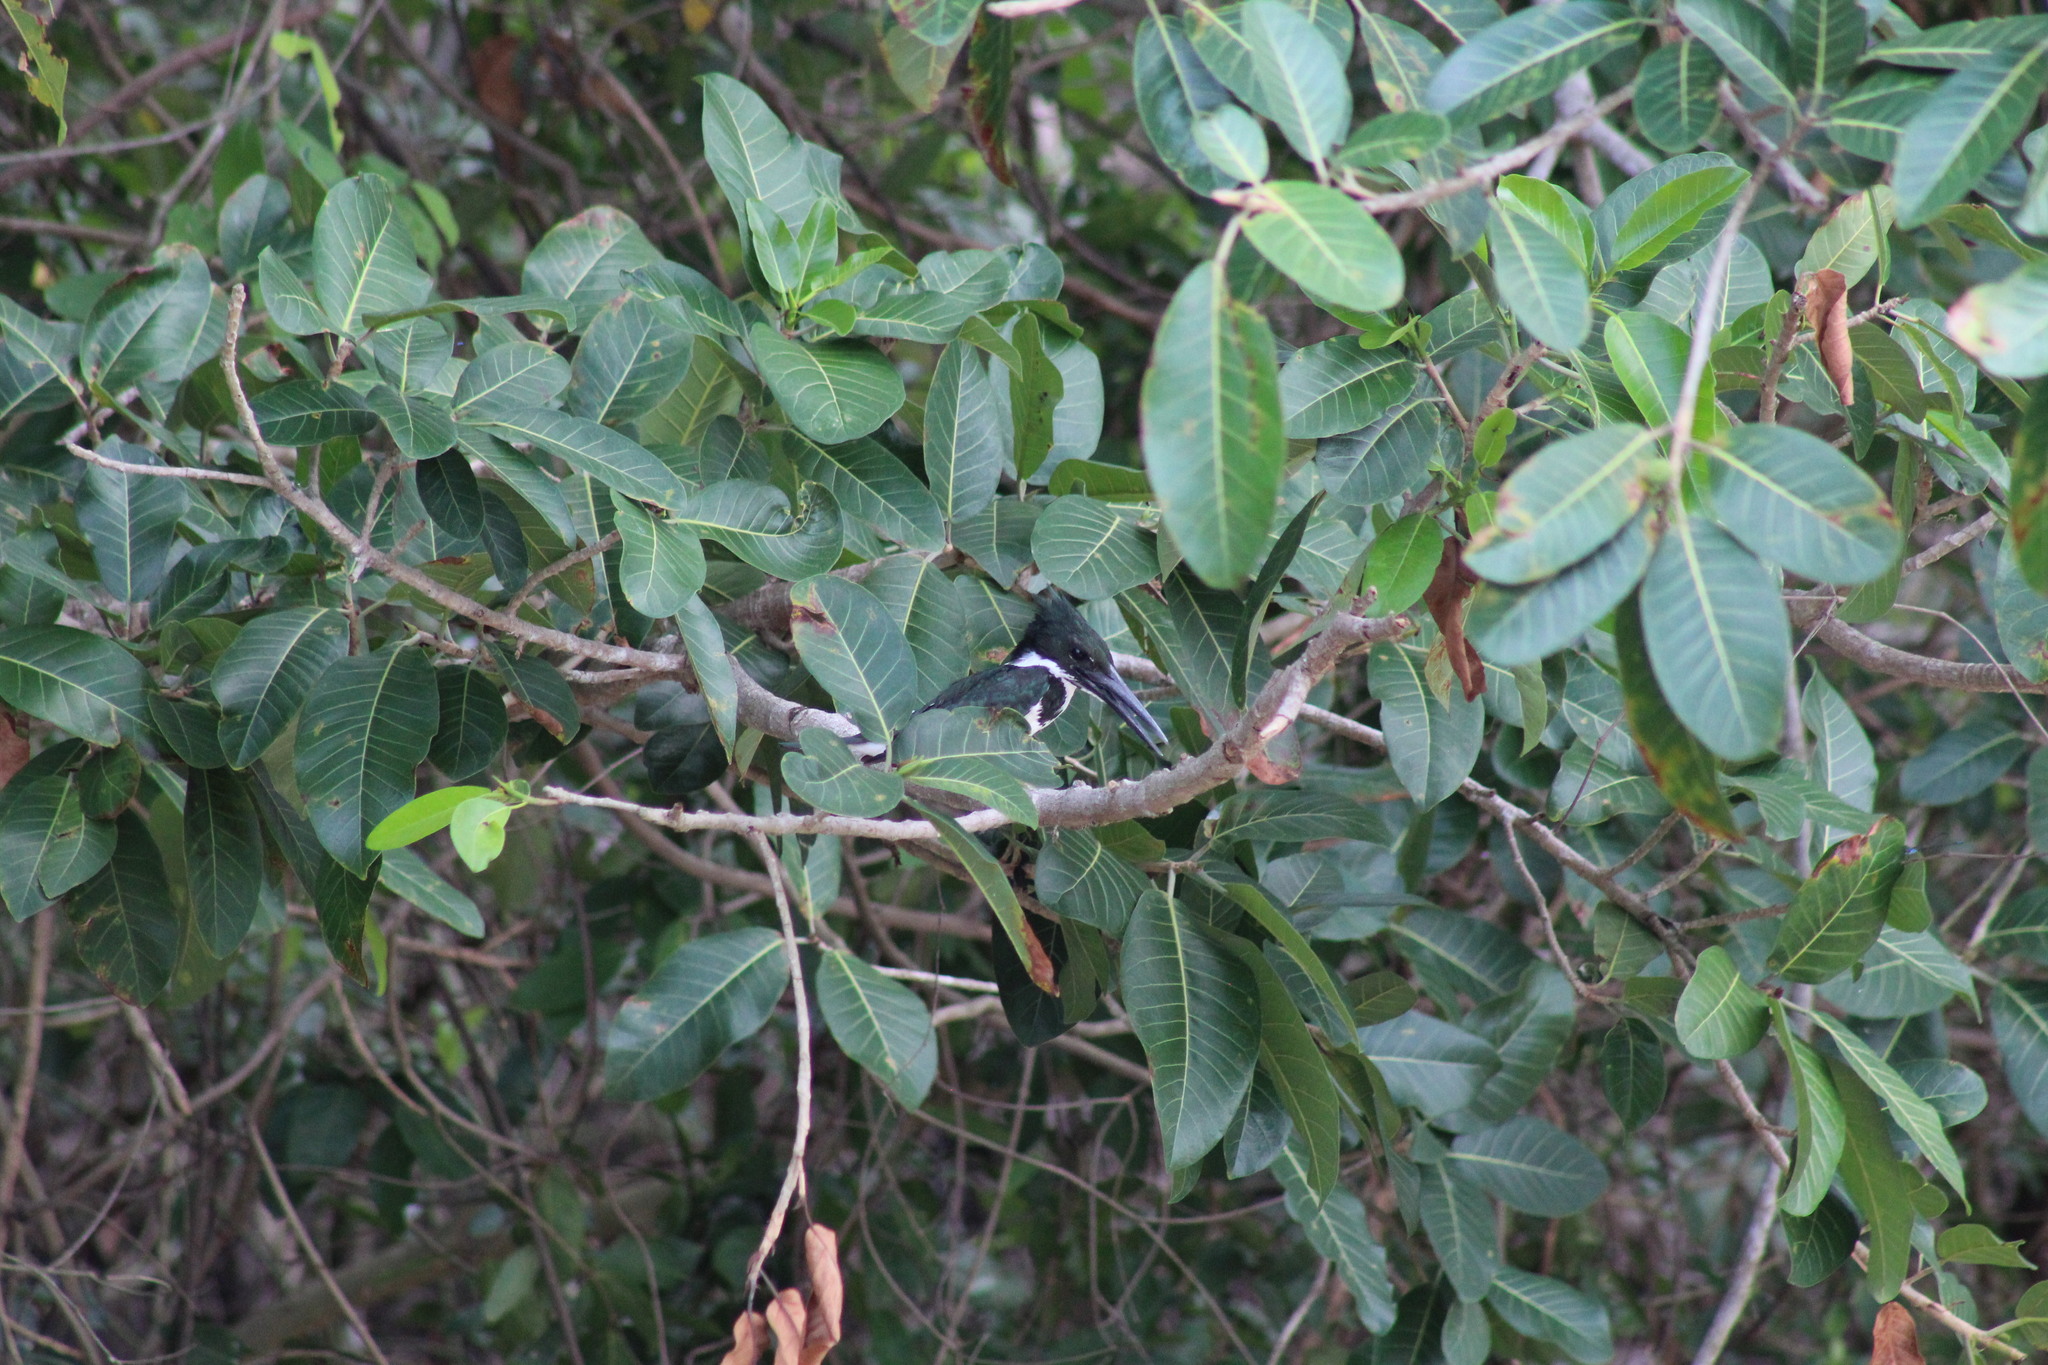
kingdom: Animalia
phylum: Chordata
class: Aves
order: Coraciiformes
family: Alcedinidae
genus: Chloroceryle
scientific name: Chloroceryle amazona
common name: Amazon kingfisher
